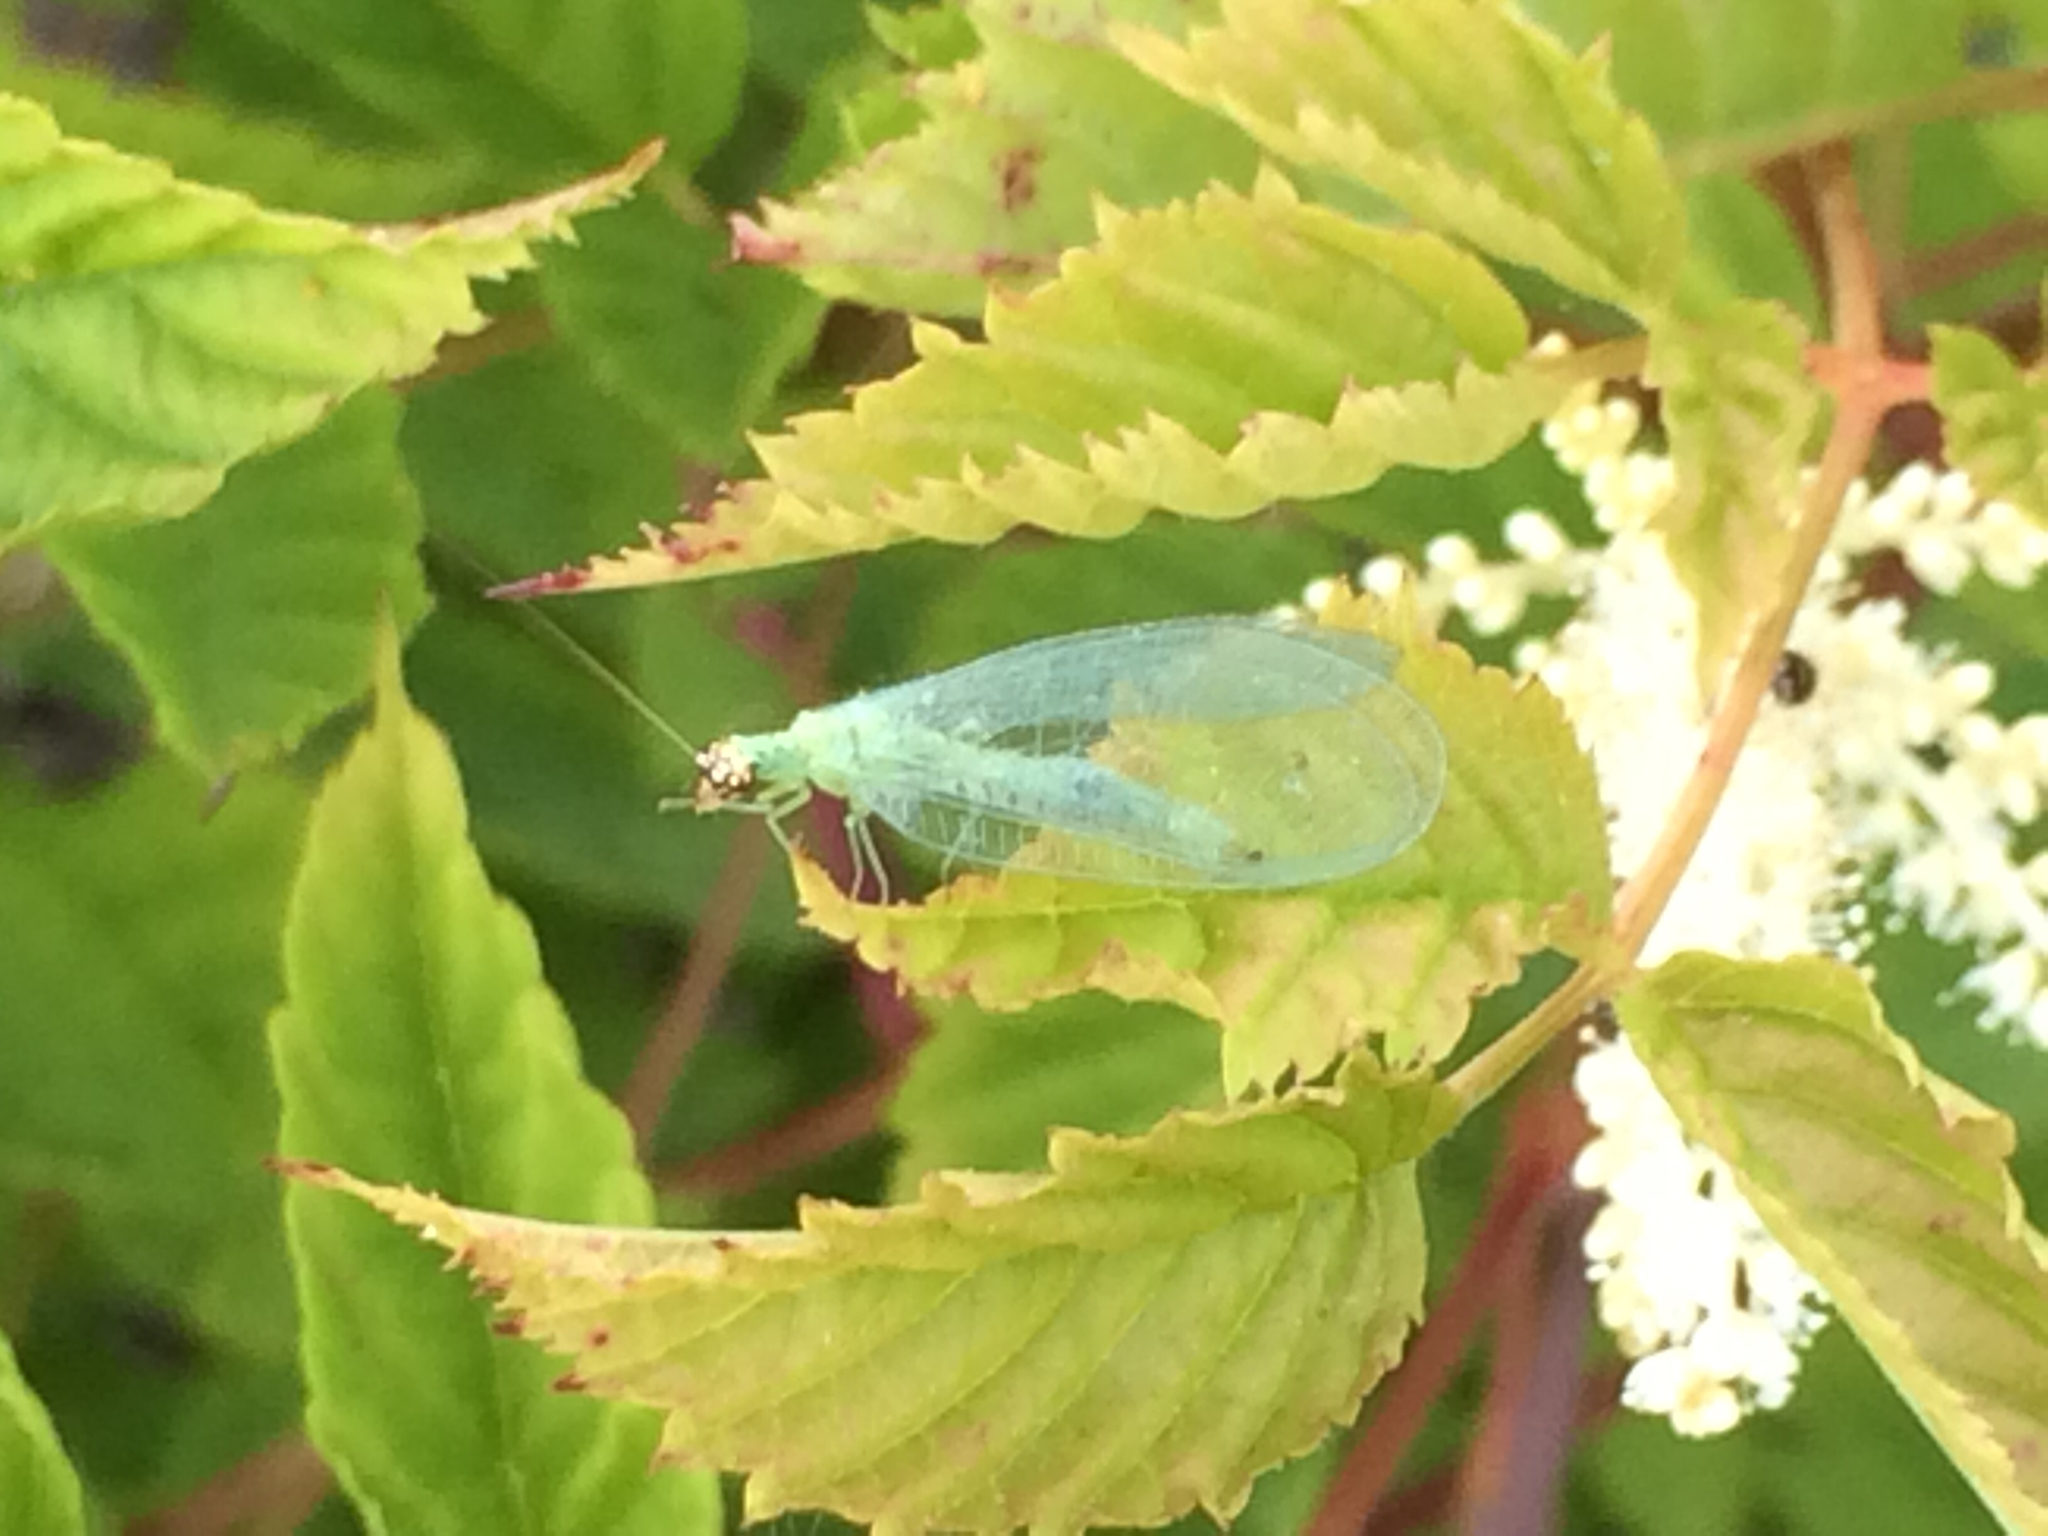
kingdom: Animalia
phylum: Arthropoda
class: Insecta
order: Neuroptera
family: Chrysopidae
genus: Chrysopa
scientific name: Chrysopa oculata
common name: Golden-eyed lacewing
